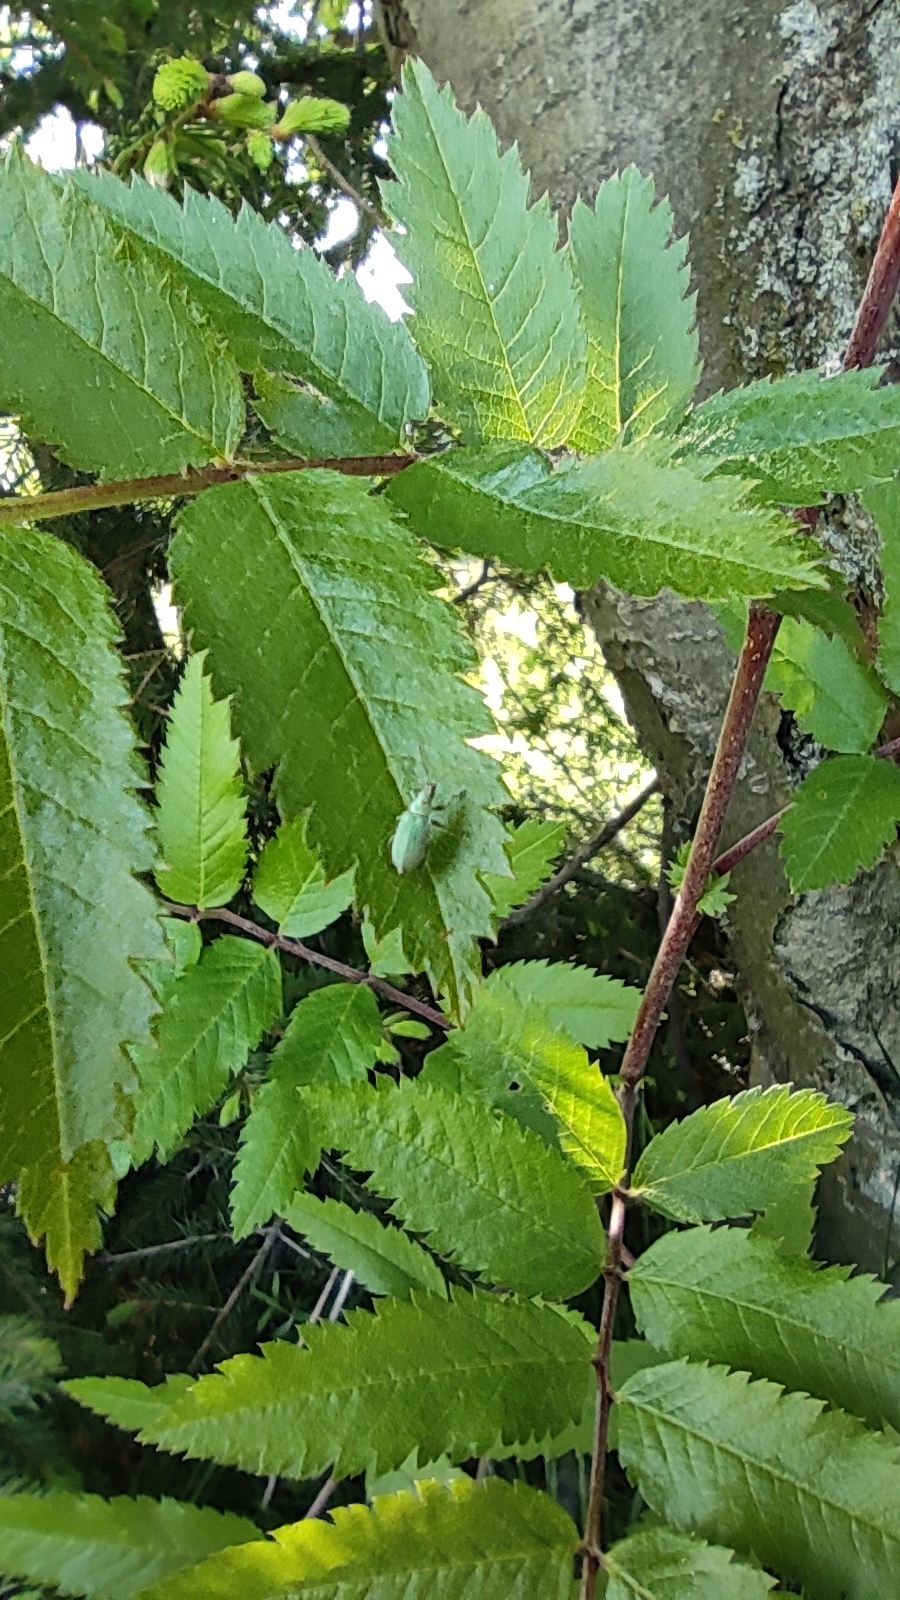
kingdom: Plantae
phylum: Tracheophyta
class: Magnoliopsida
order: Rosales
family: Rosaceae
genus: Sorbus
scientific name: Sorbus aucuparia
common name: Rowan
